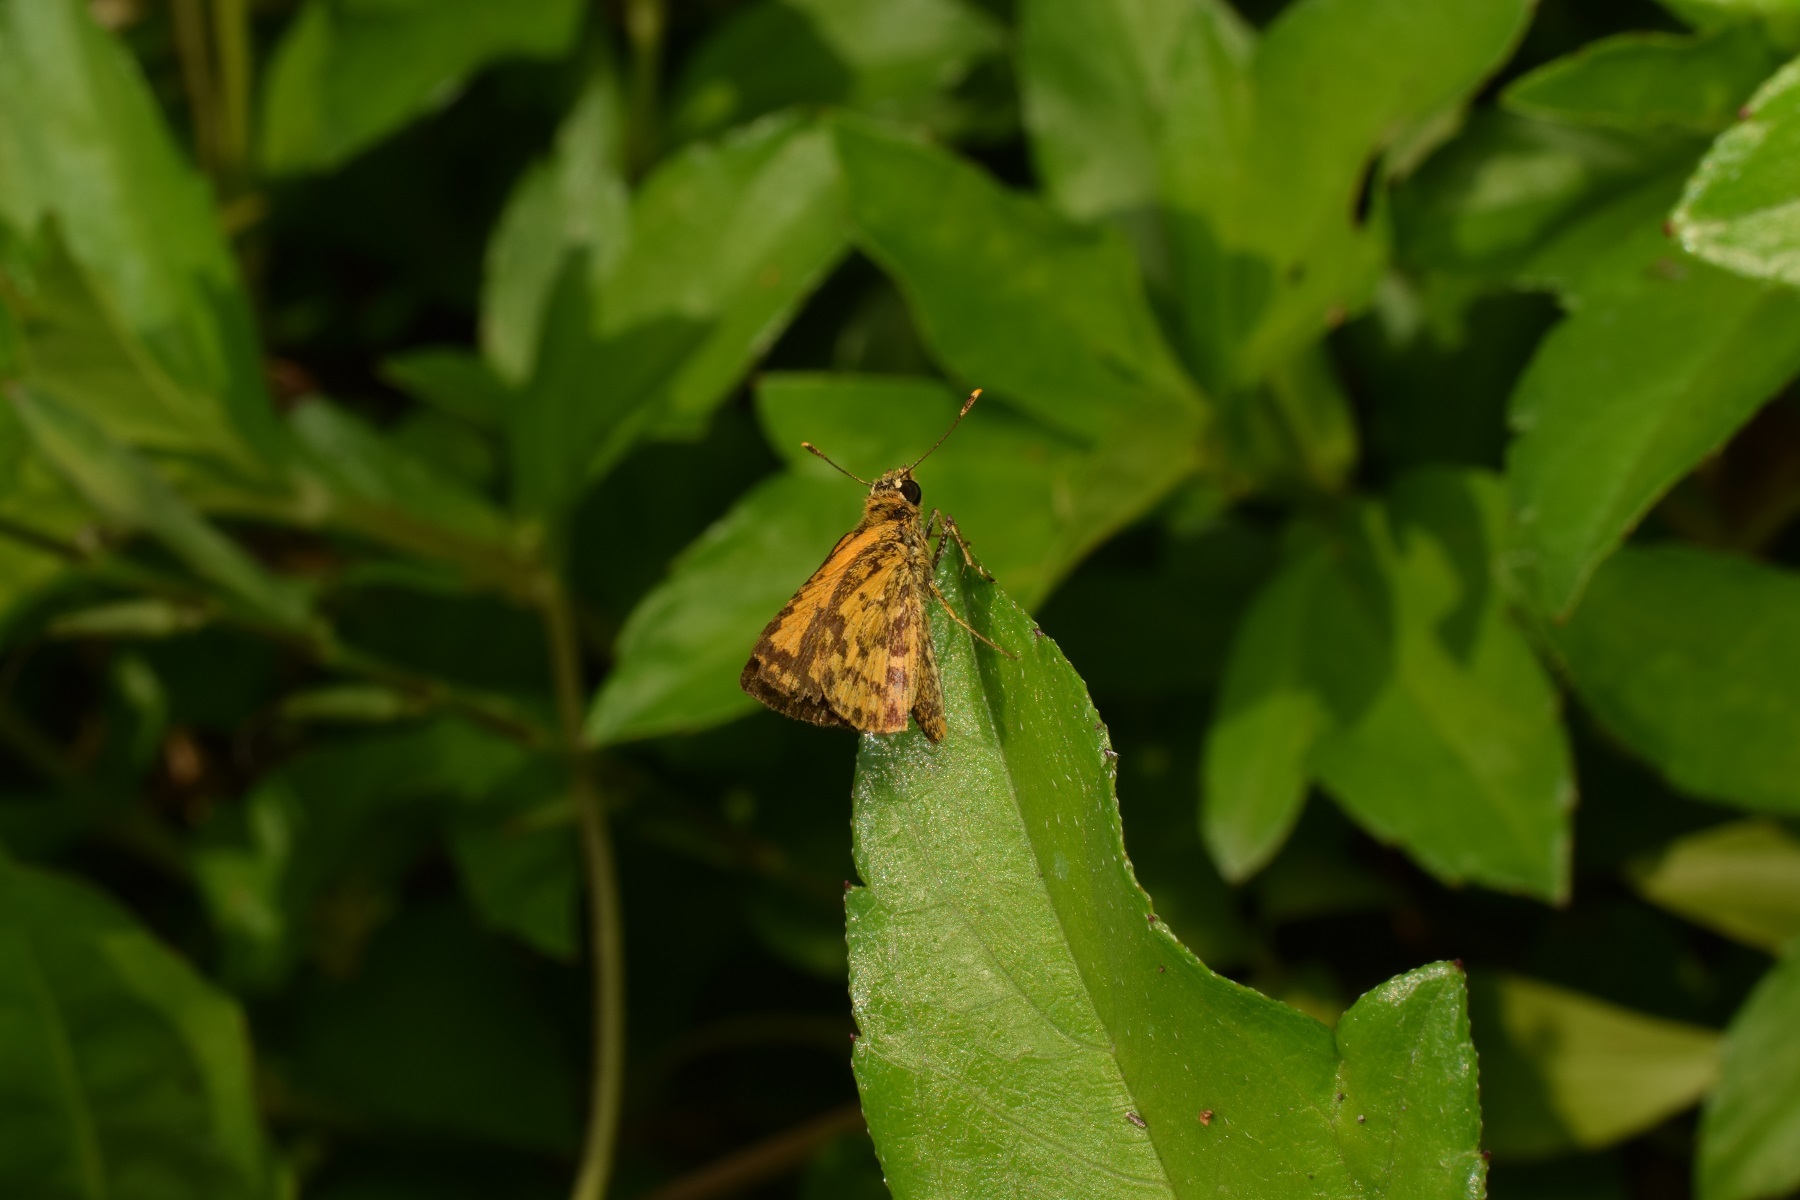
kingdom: Animalia
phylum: Arthropoda
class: Insecta
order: Lepidoptera
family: Hesperiidae
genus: Ampittia
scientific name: Ampittia dioscorides
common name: Common bush hopper
